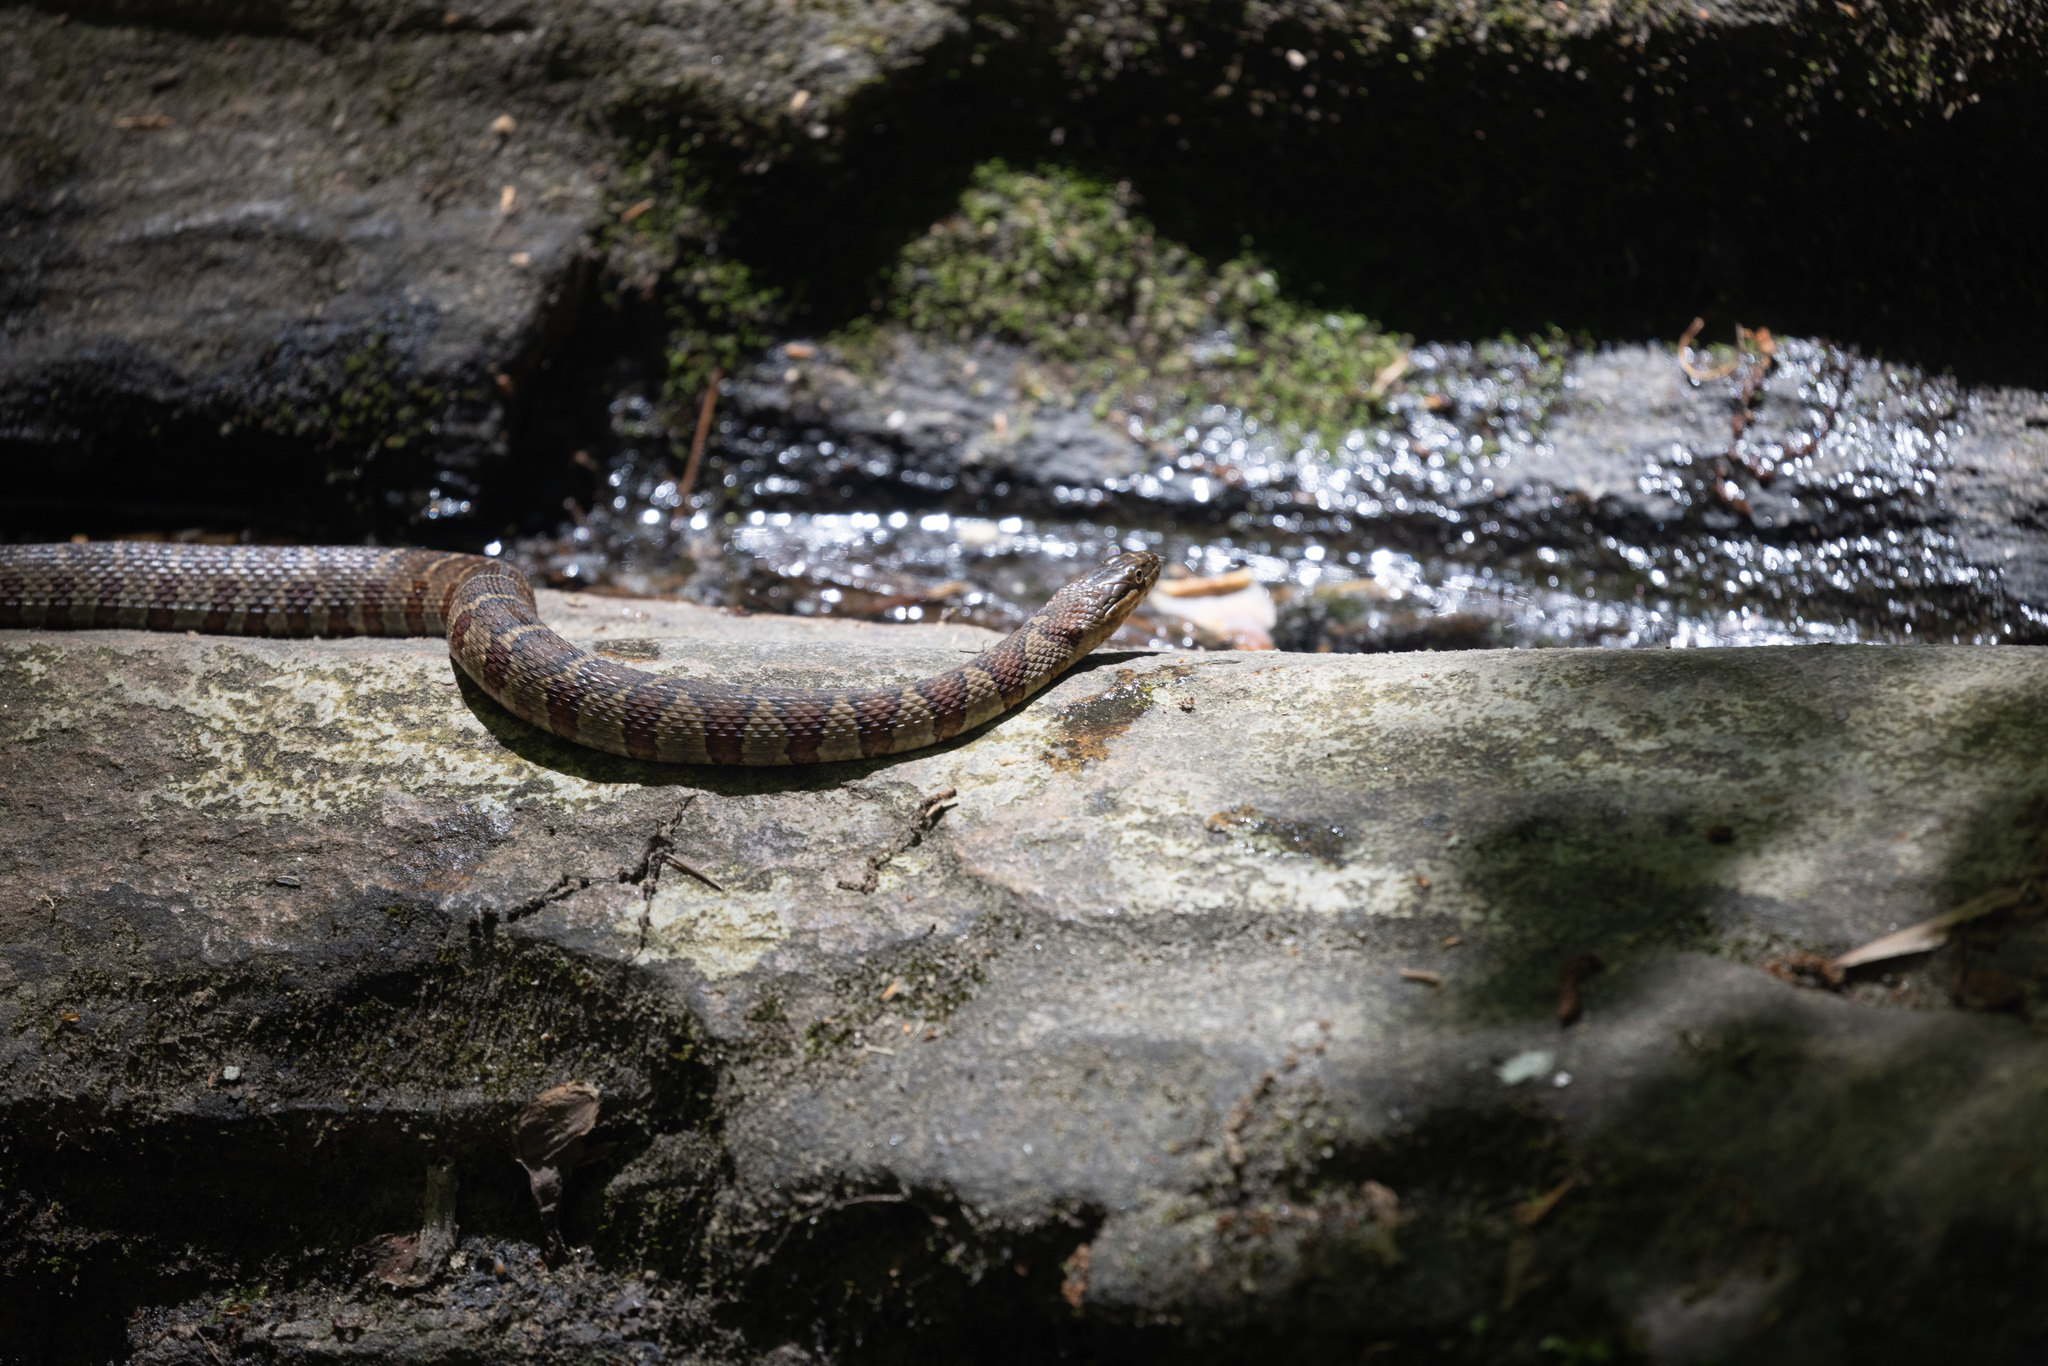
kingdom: Animalia
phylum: Chordata
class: Squamata
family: Colubridae
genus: Nerodia
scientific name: Nerodia sipedon
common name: Northern water snake
